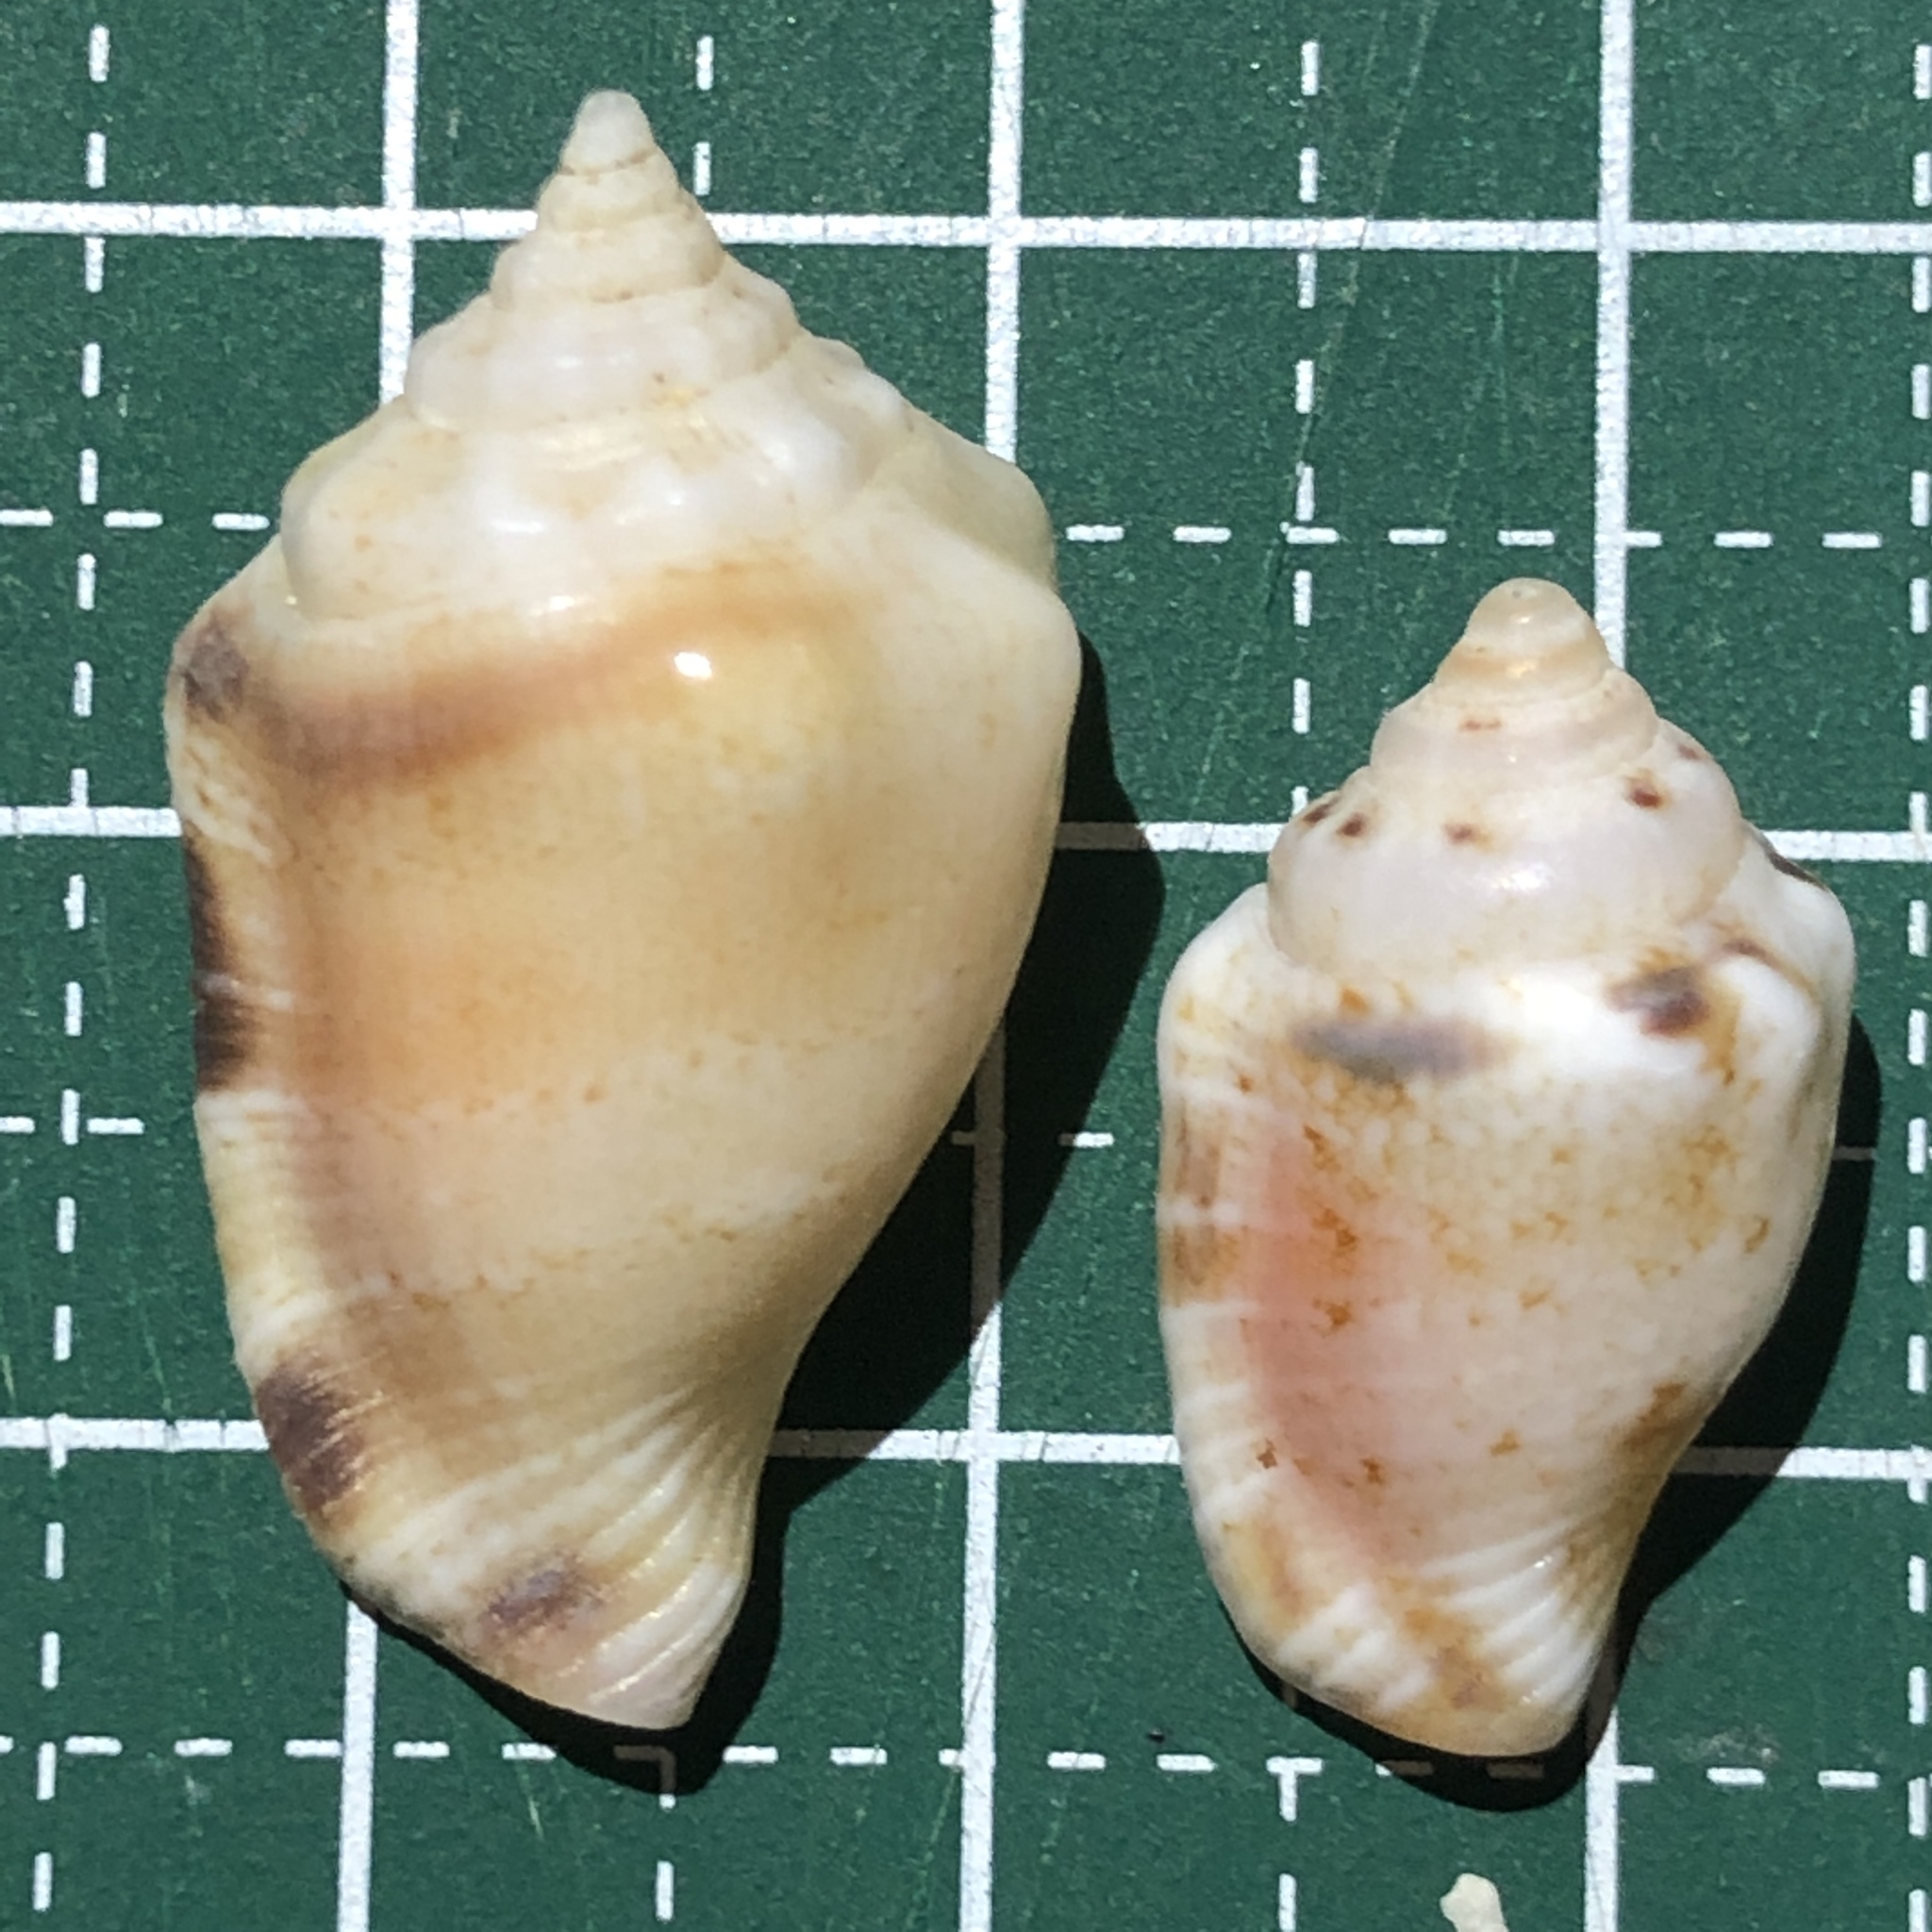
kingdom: Animalia
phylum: Mollusca
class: Gastropoda
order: Littorinimorpha
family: Strombidae
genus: Canarium
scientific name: Canarium mutabile
